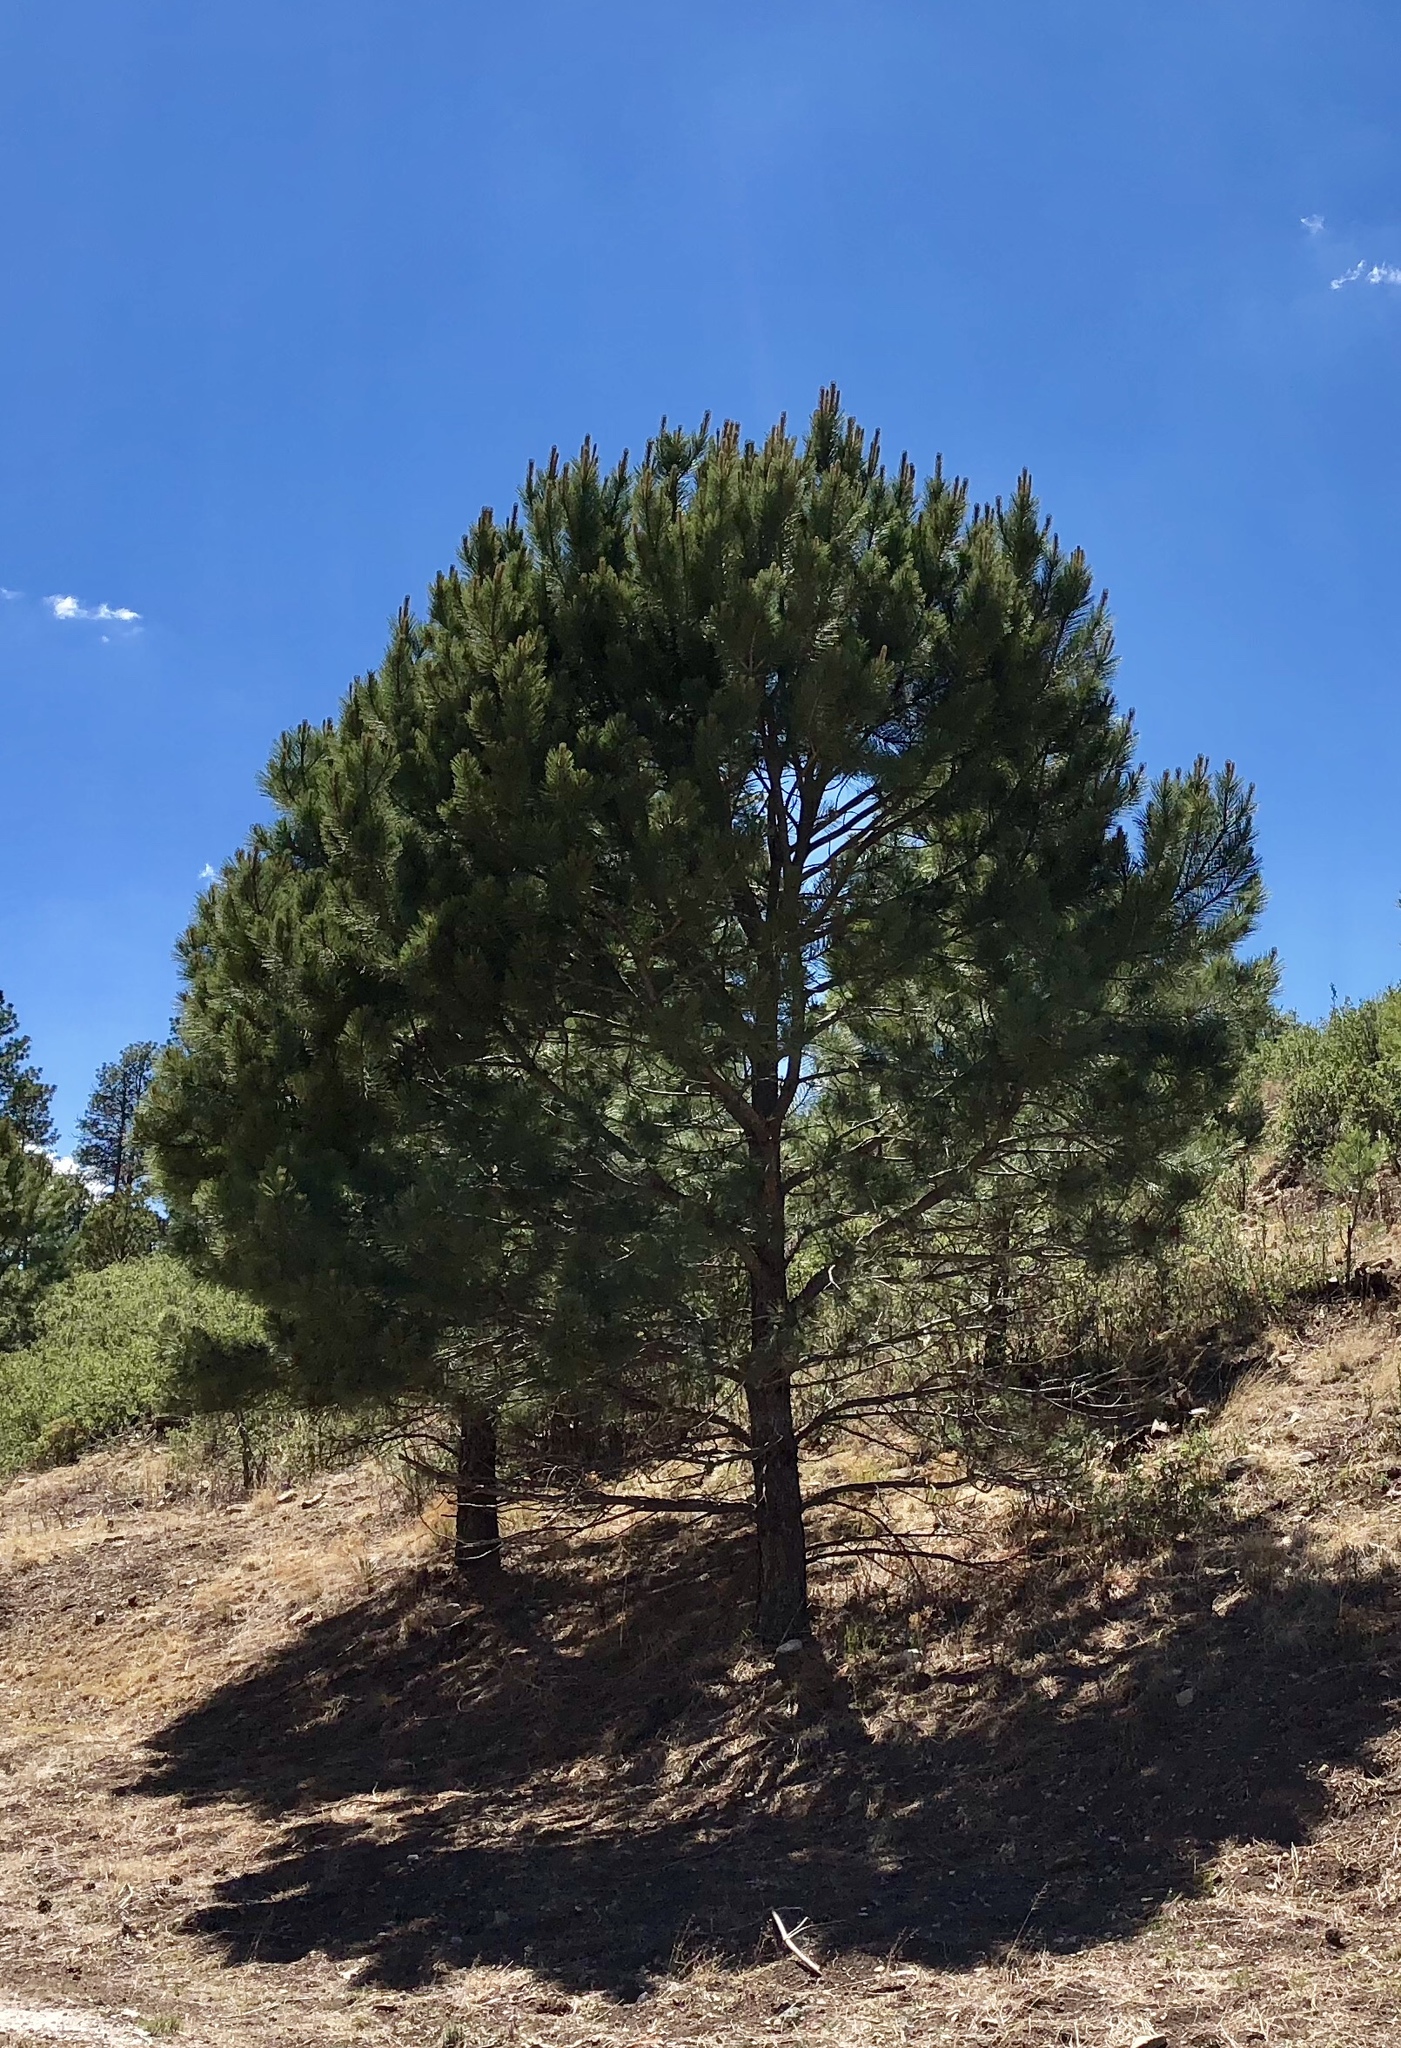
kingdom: Plantae
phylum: Tracheophyta
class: Pinopsida
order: Pinales
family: Pinaceae
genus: Pinus
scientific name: Pinus ponderosa
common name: Western yellow-pine
